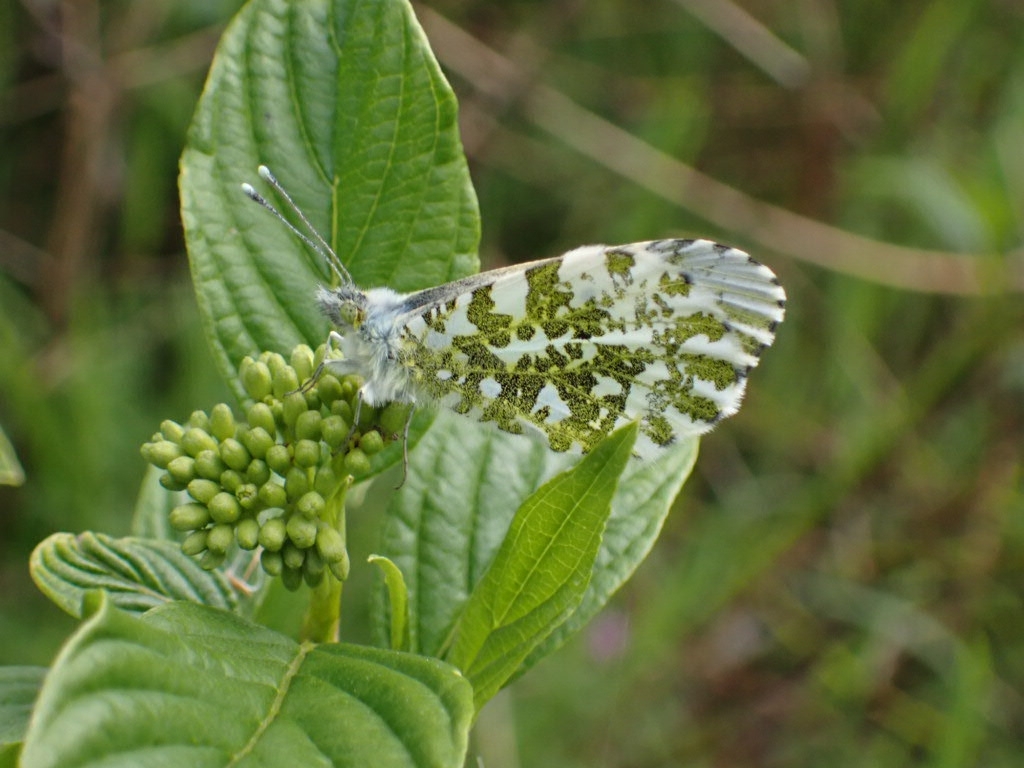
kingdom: Animalia
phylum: Arthropoda
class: Insecta
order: Lepidoptera
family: Pieridae
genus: Anthocharis
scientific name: Anthocharis cardamines
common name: Orange-tip
